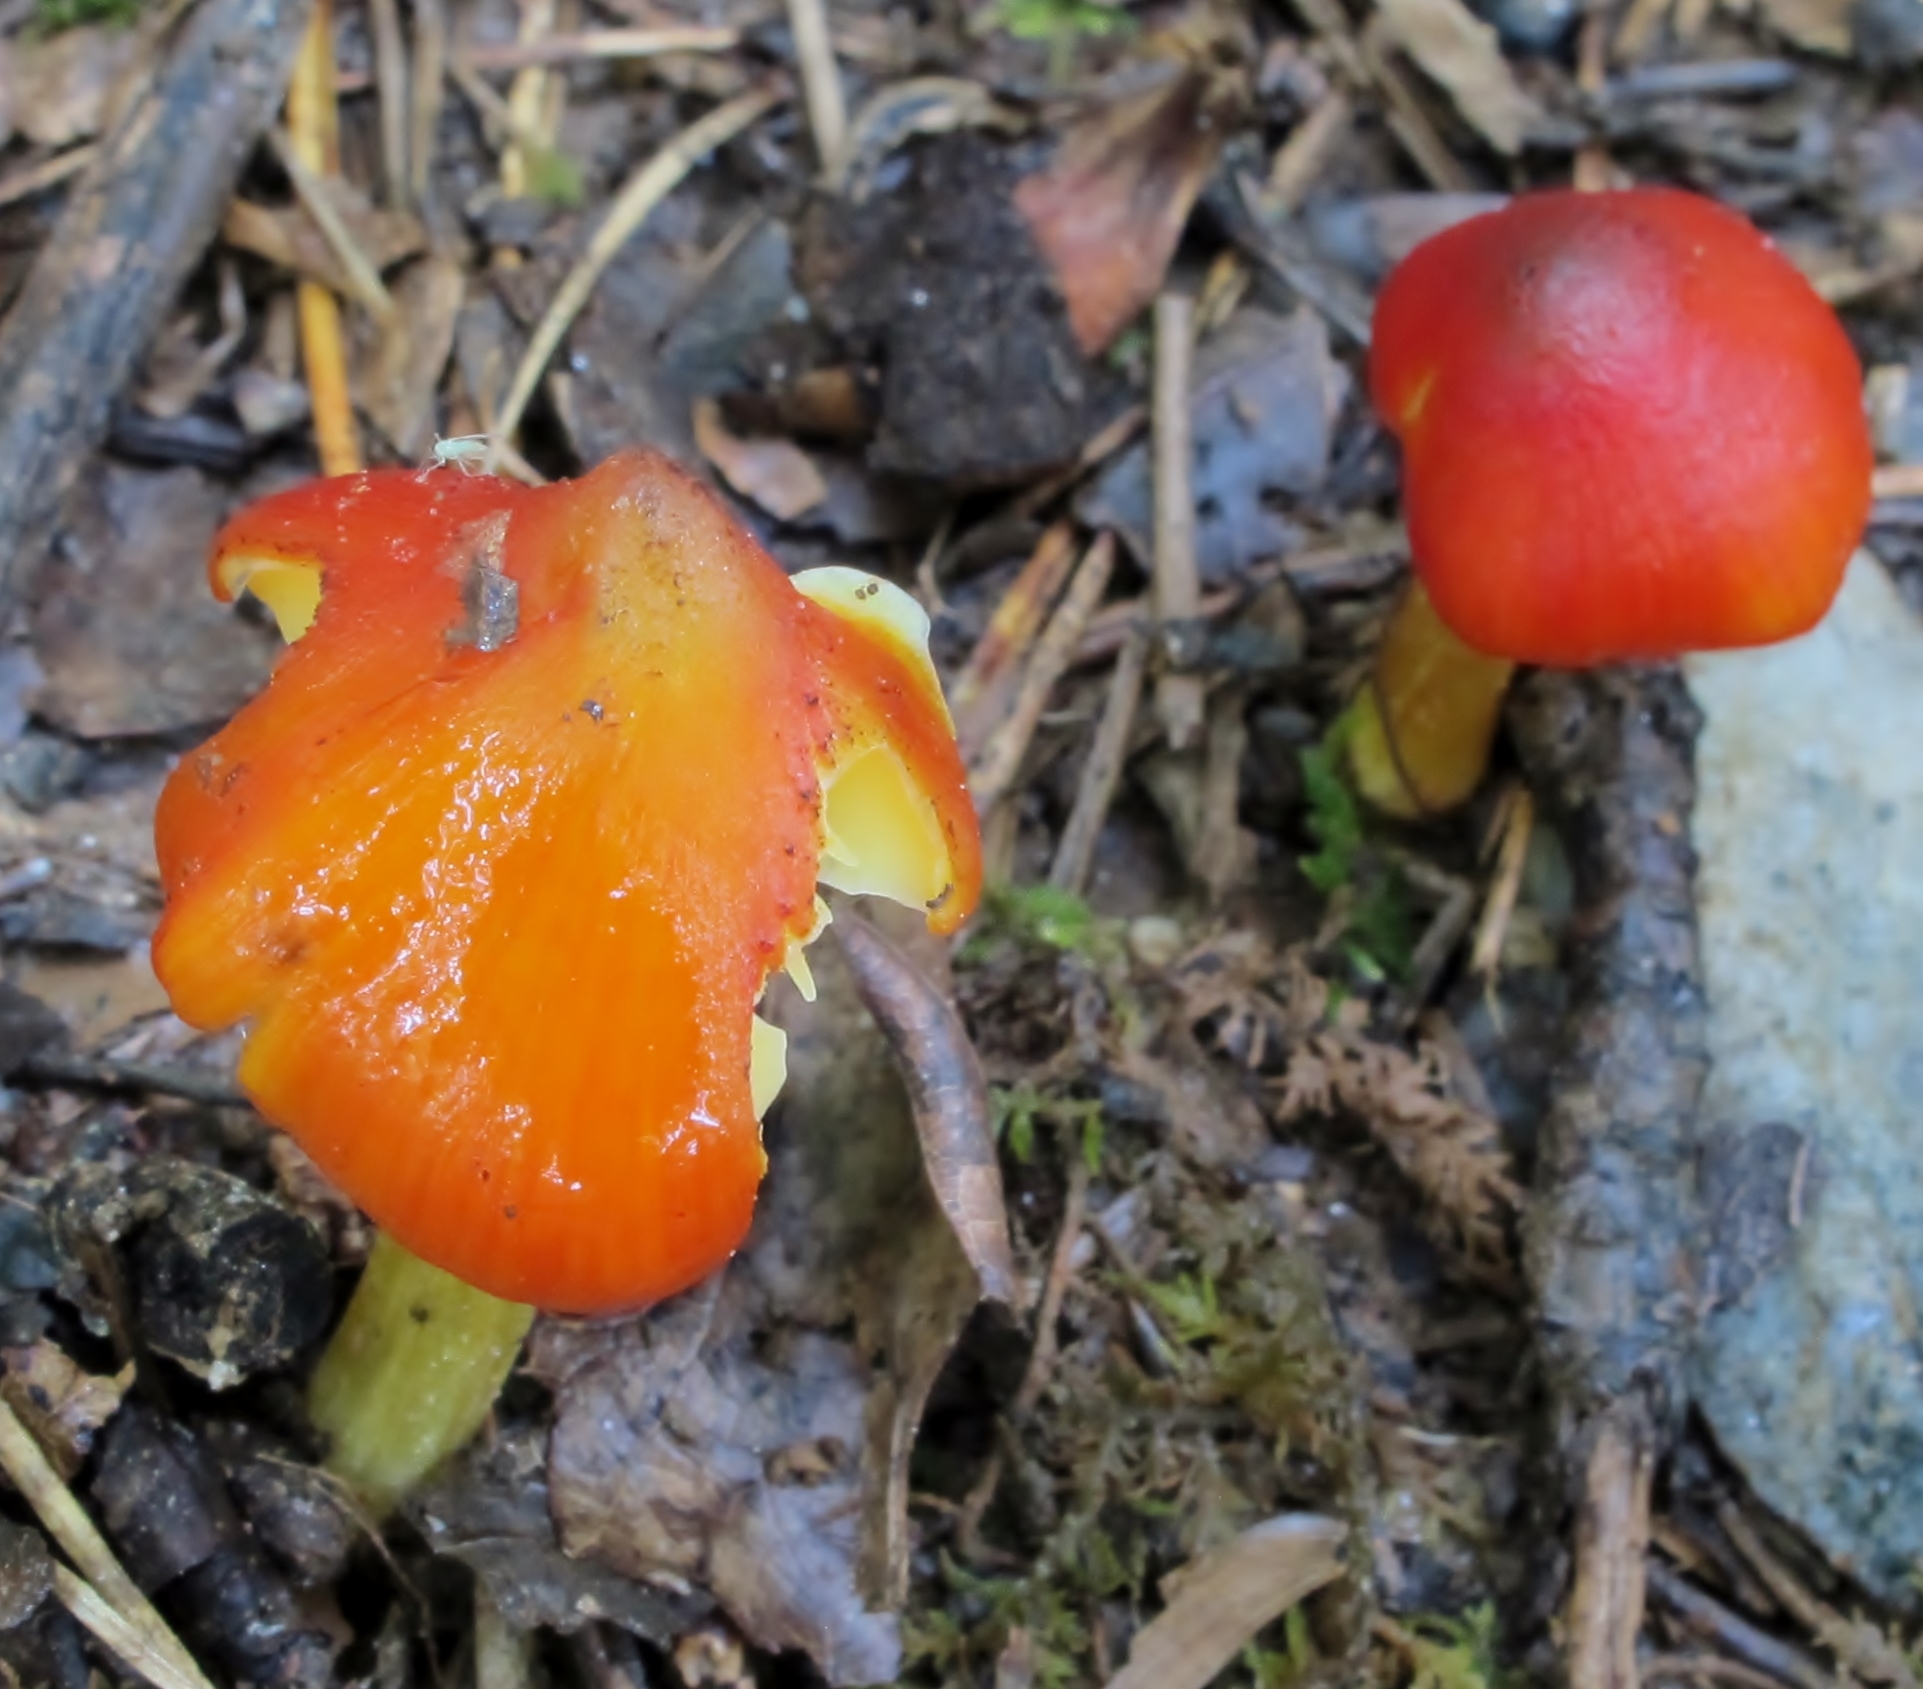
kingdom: Fungi
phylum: Basidiomycota
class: Agaricomycetes
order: Agaricales
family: Hygrophoraceae
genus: Hygrocybe
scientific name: Hygrocybe conica
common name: Blackening wax-cap
